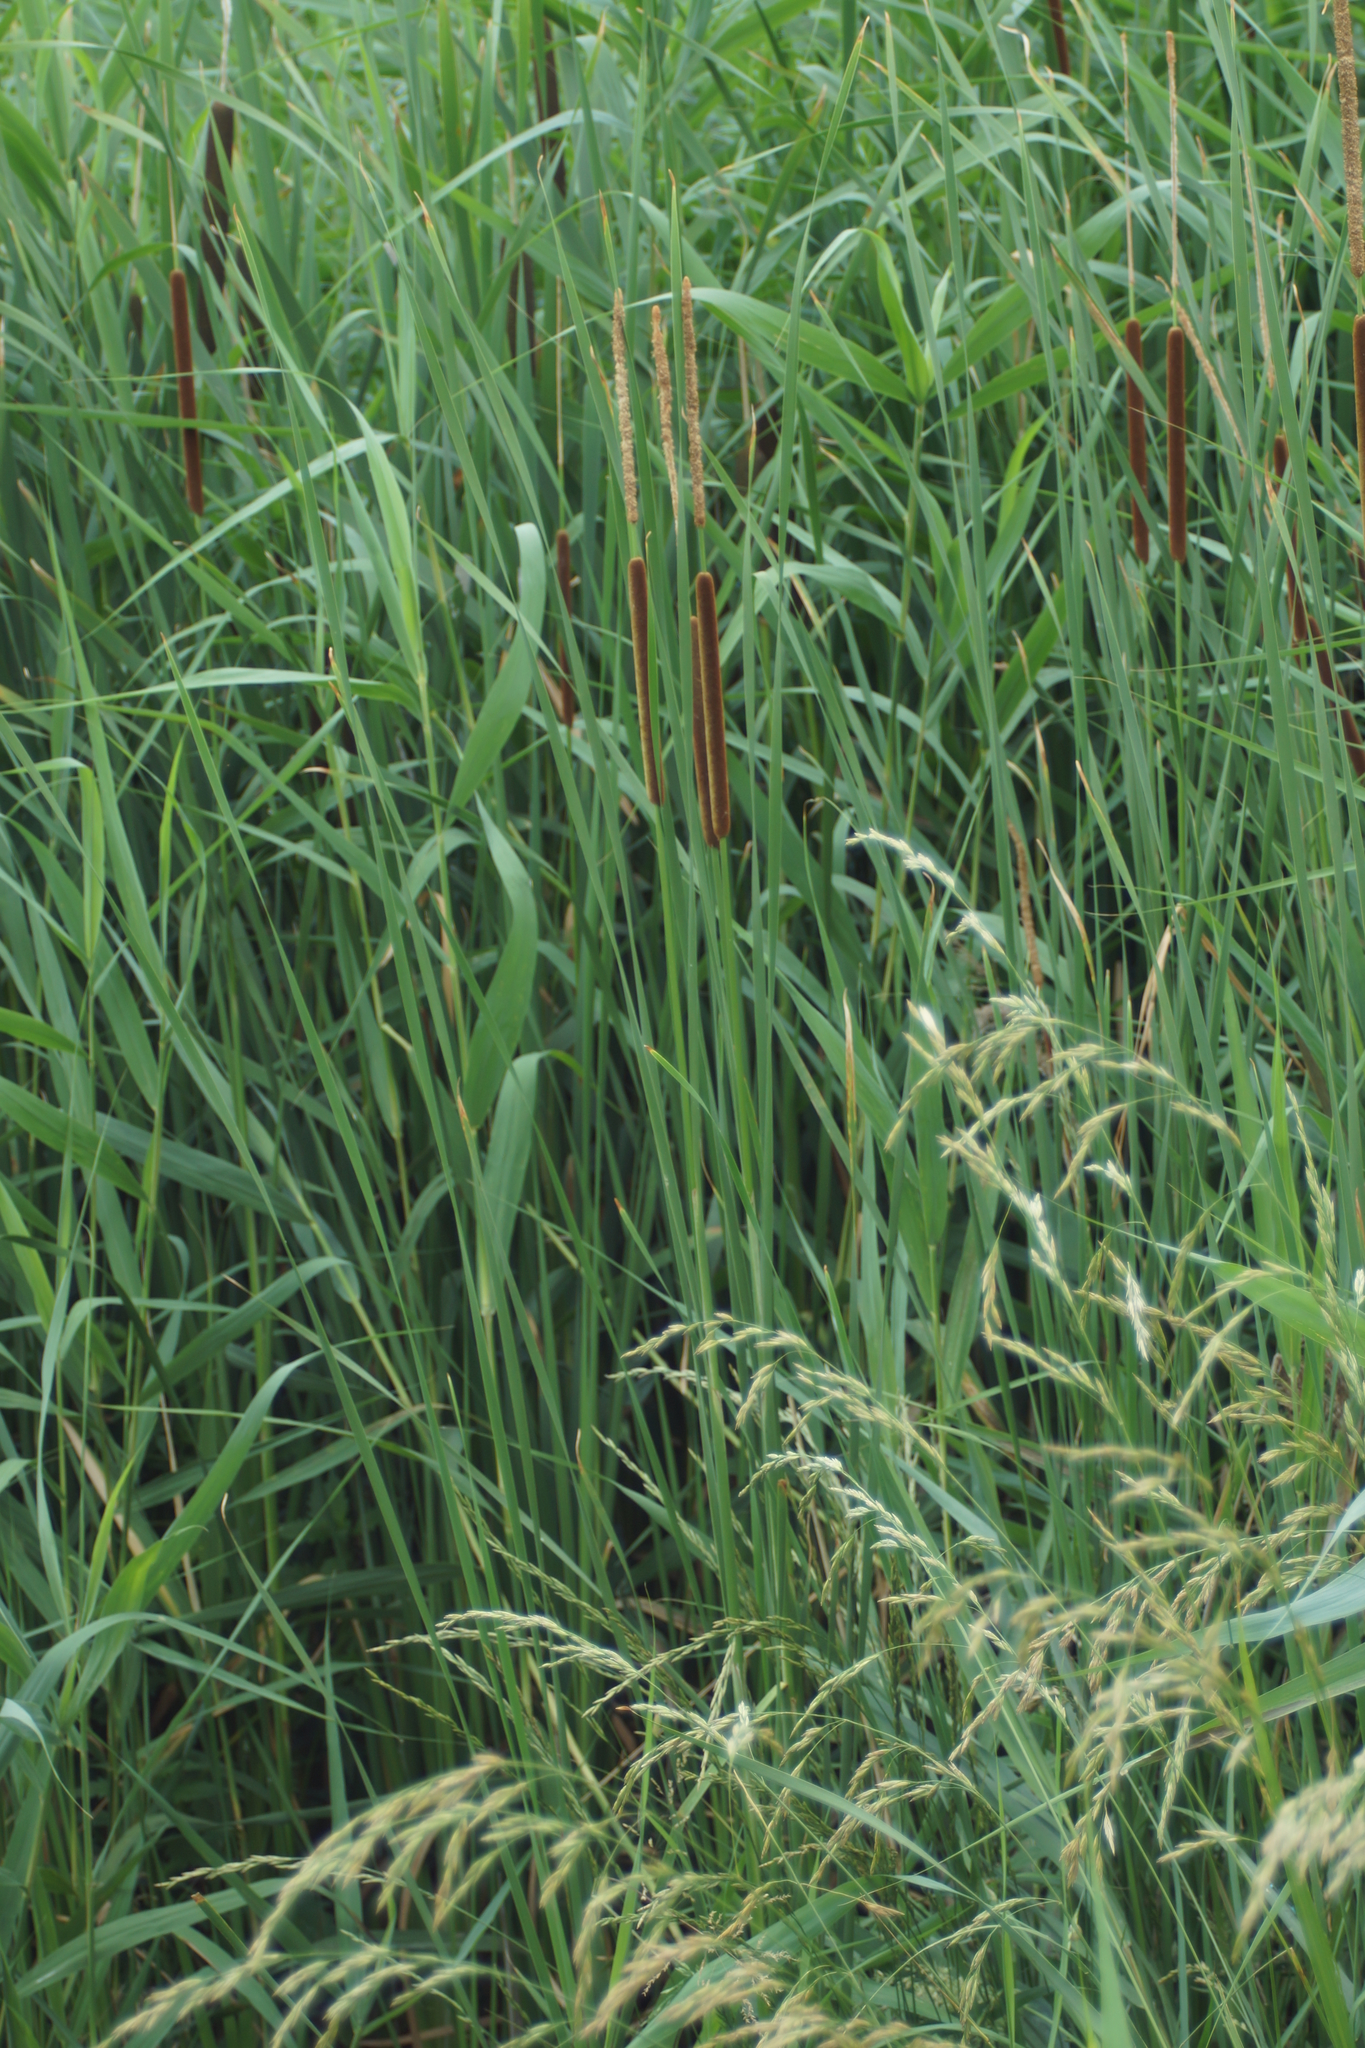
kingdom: Plantae
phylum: Tracheophyta
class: Liliopsida
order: Poales
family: Typhaceae
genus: Typha
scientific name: Typha angustifolia
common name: Lesser bulrush
